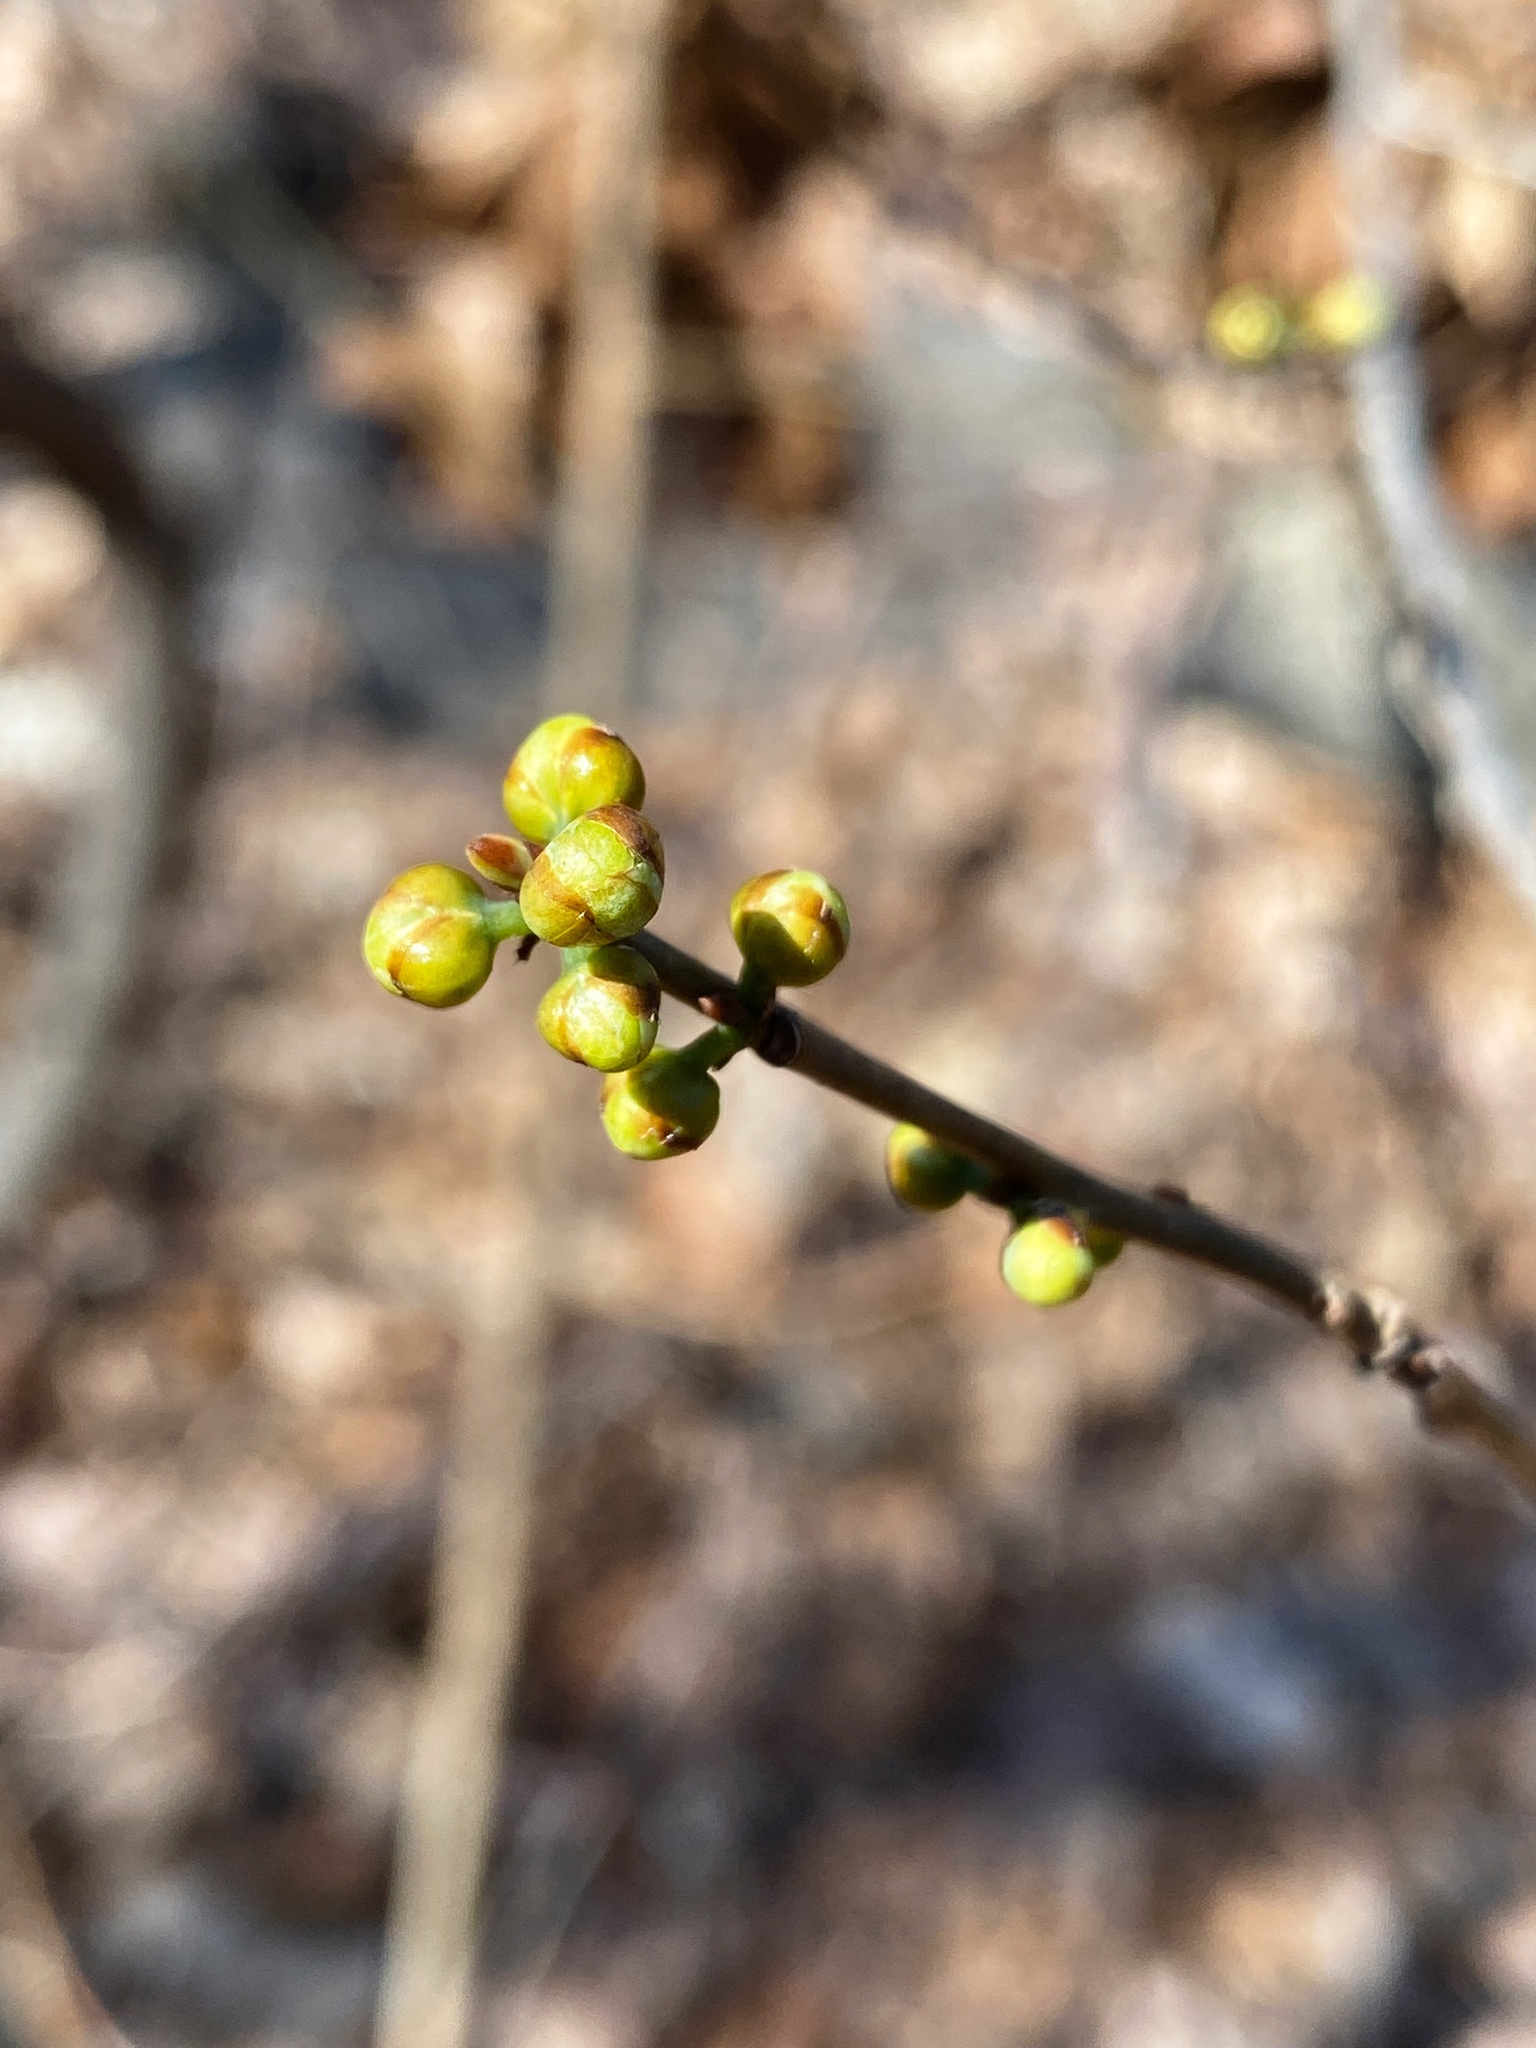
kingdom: Plantae
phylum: Tracheophyta
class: Magnoliopsida
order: Laurales
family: Lauraceae
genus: Lindera
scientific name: Lindera benzoin
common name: Spicebush
